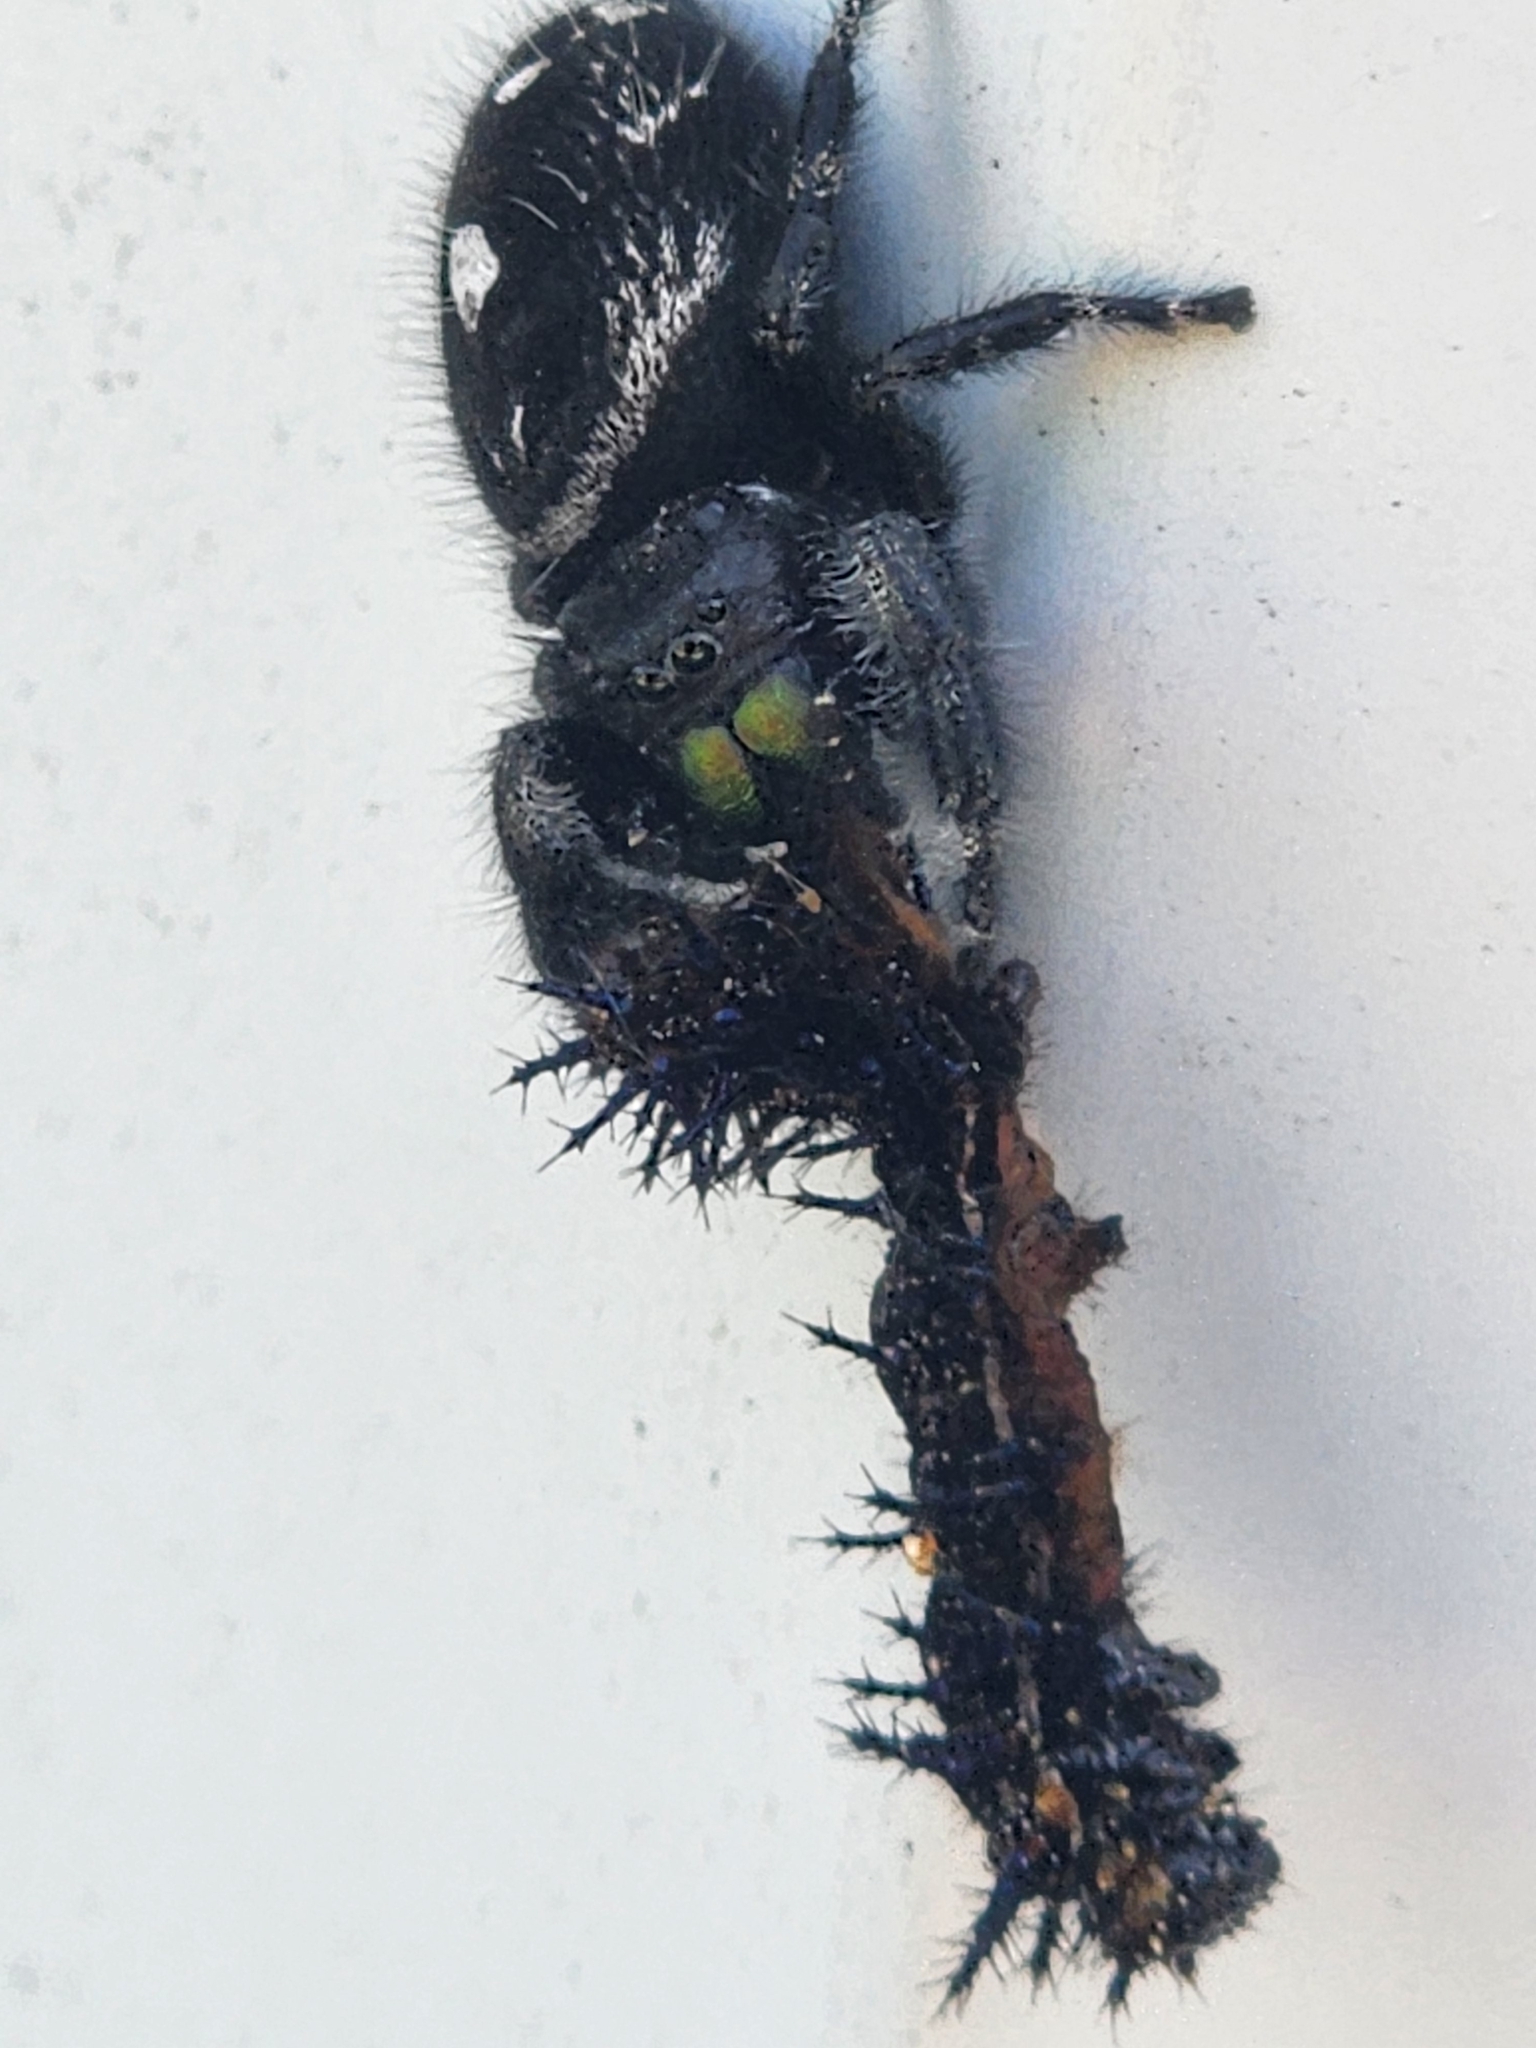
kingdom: Animalia
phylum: Arthropoda
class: Arachnida
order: Araneae
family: Salticidae
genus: Phidippus
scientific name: Phidippus audax
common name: Bold jumper
